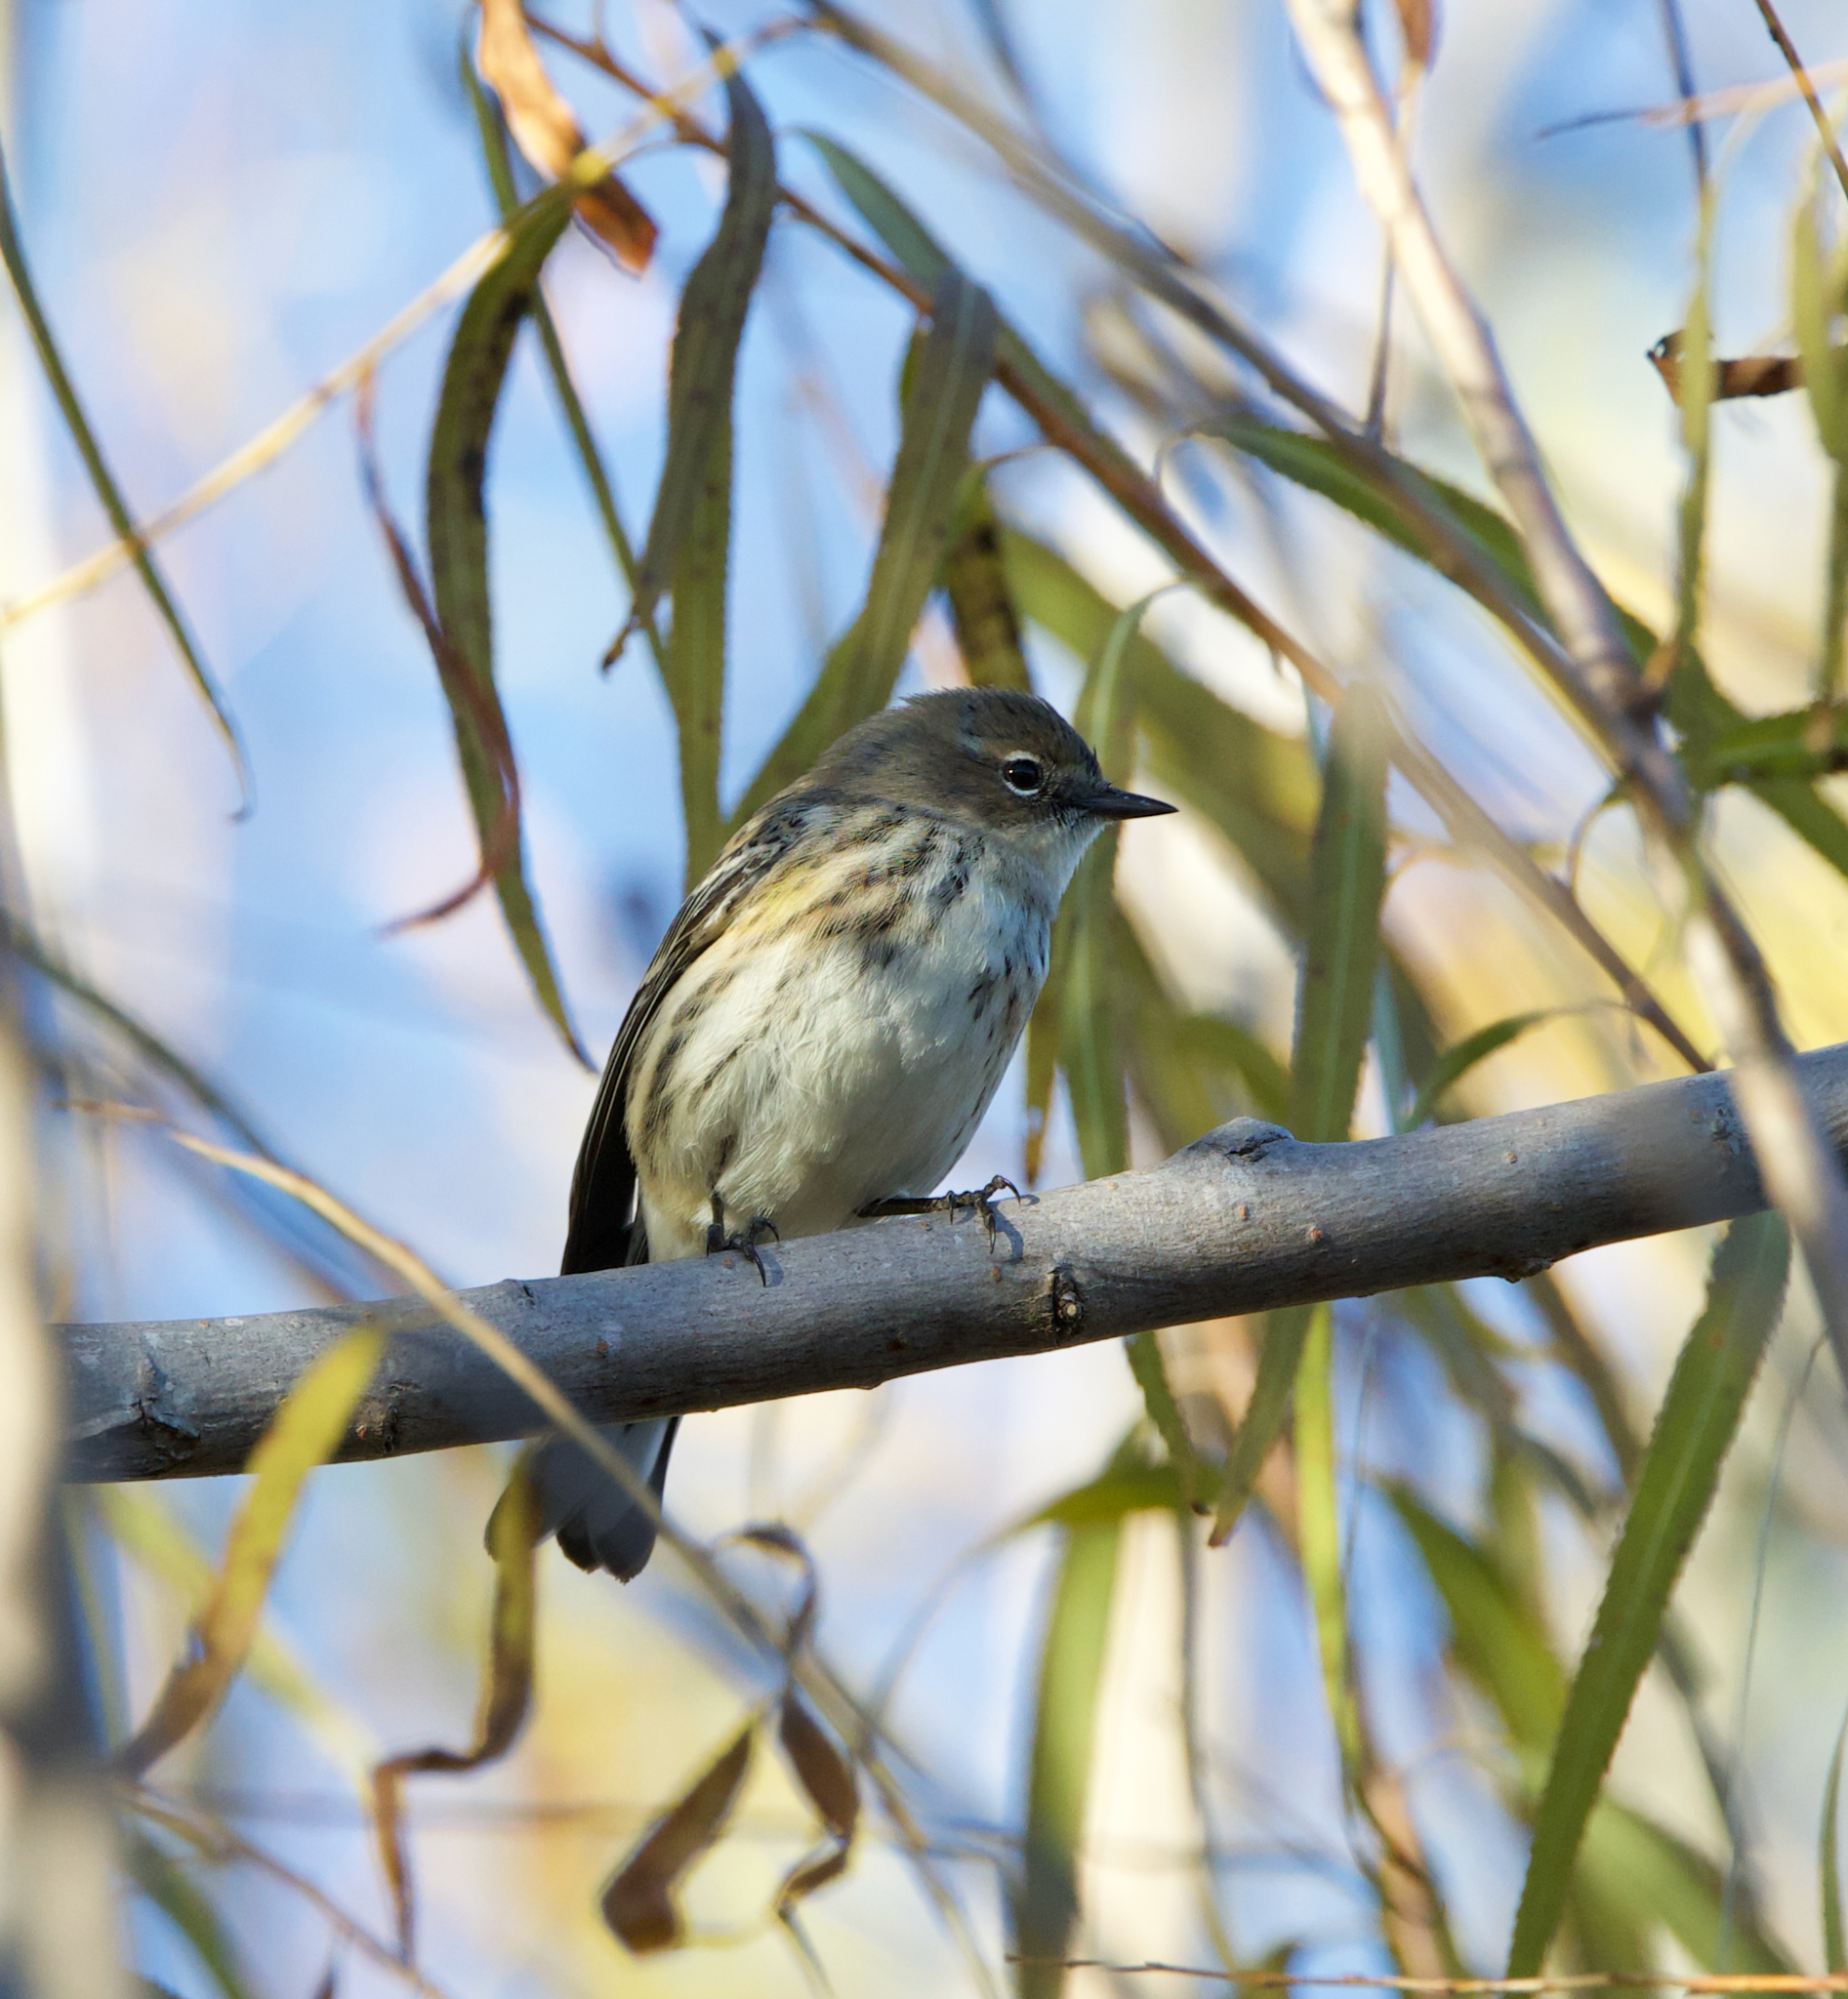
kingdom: Animalia
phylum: Chordata
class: Aves
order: Passeriformes
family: Parulidae
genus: Setophaga
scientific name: Setophaga coronata
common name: Myrtle warbler
